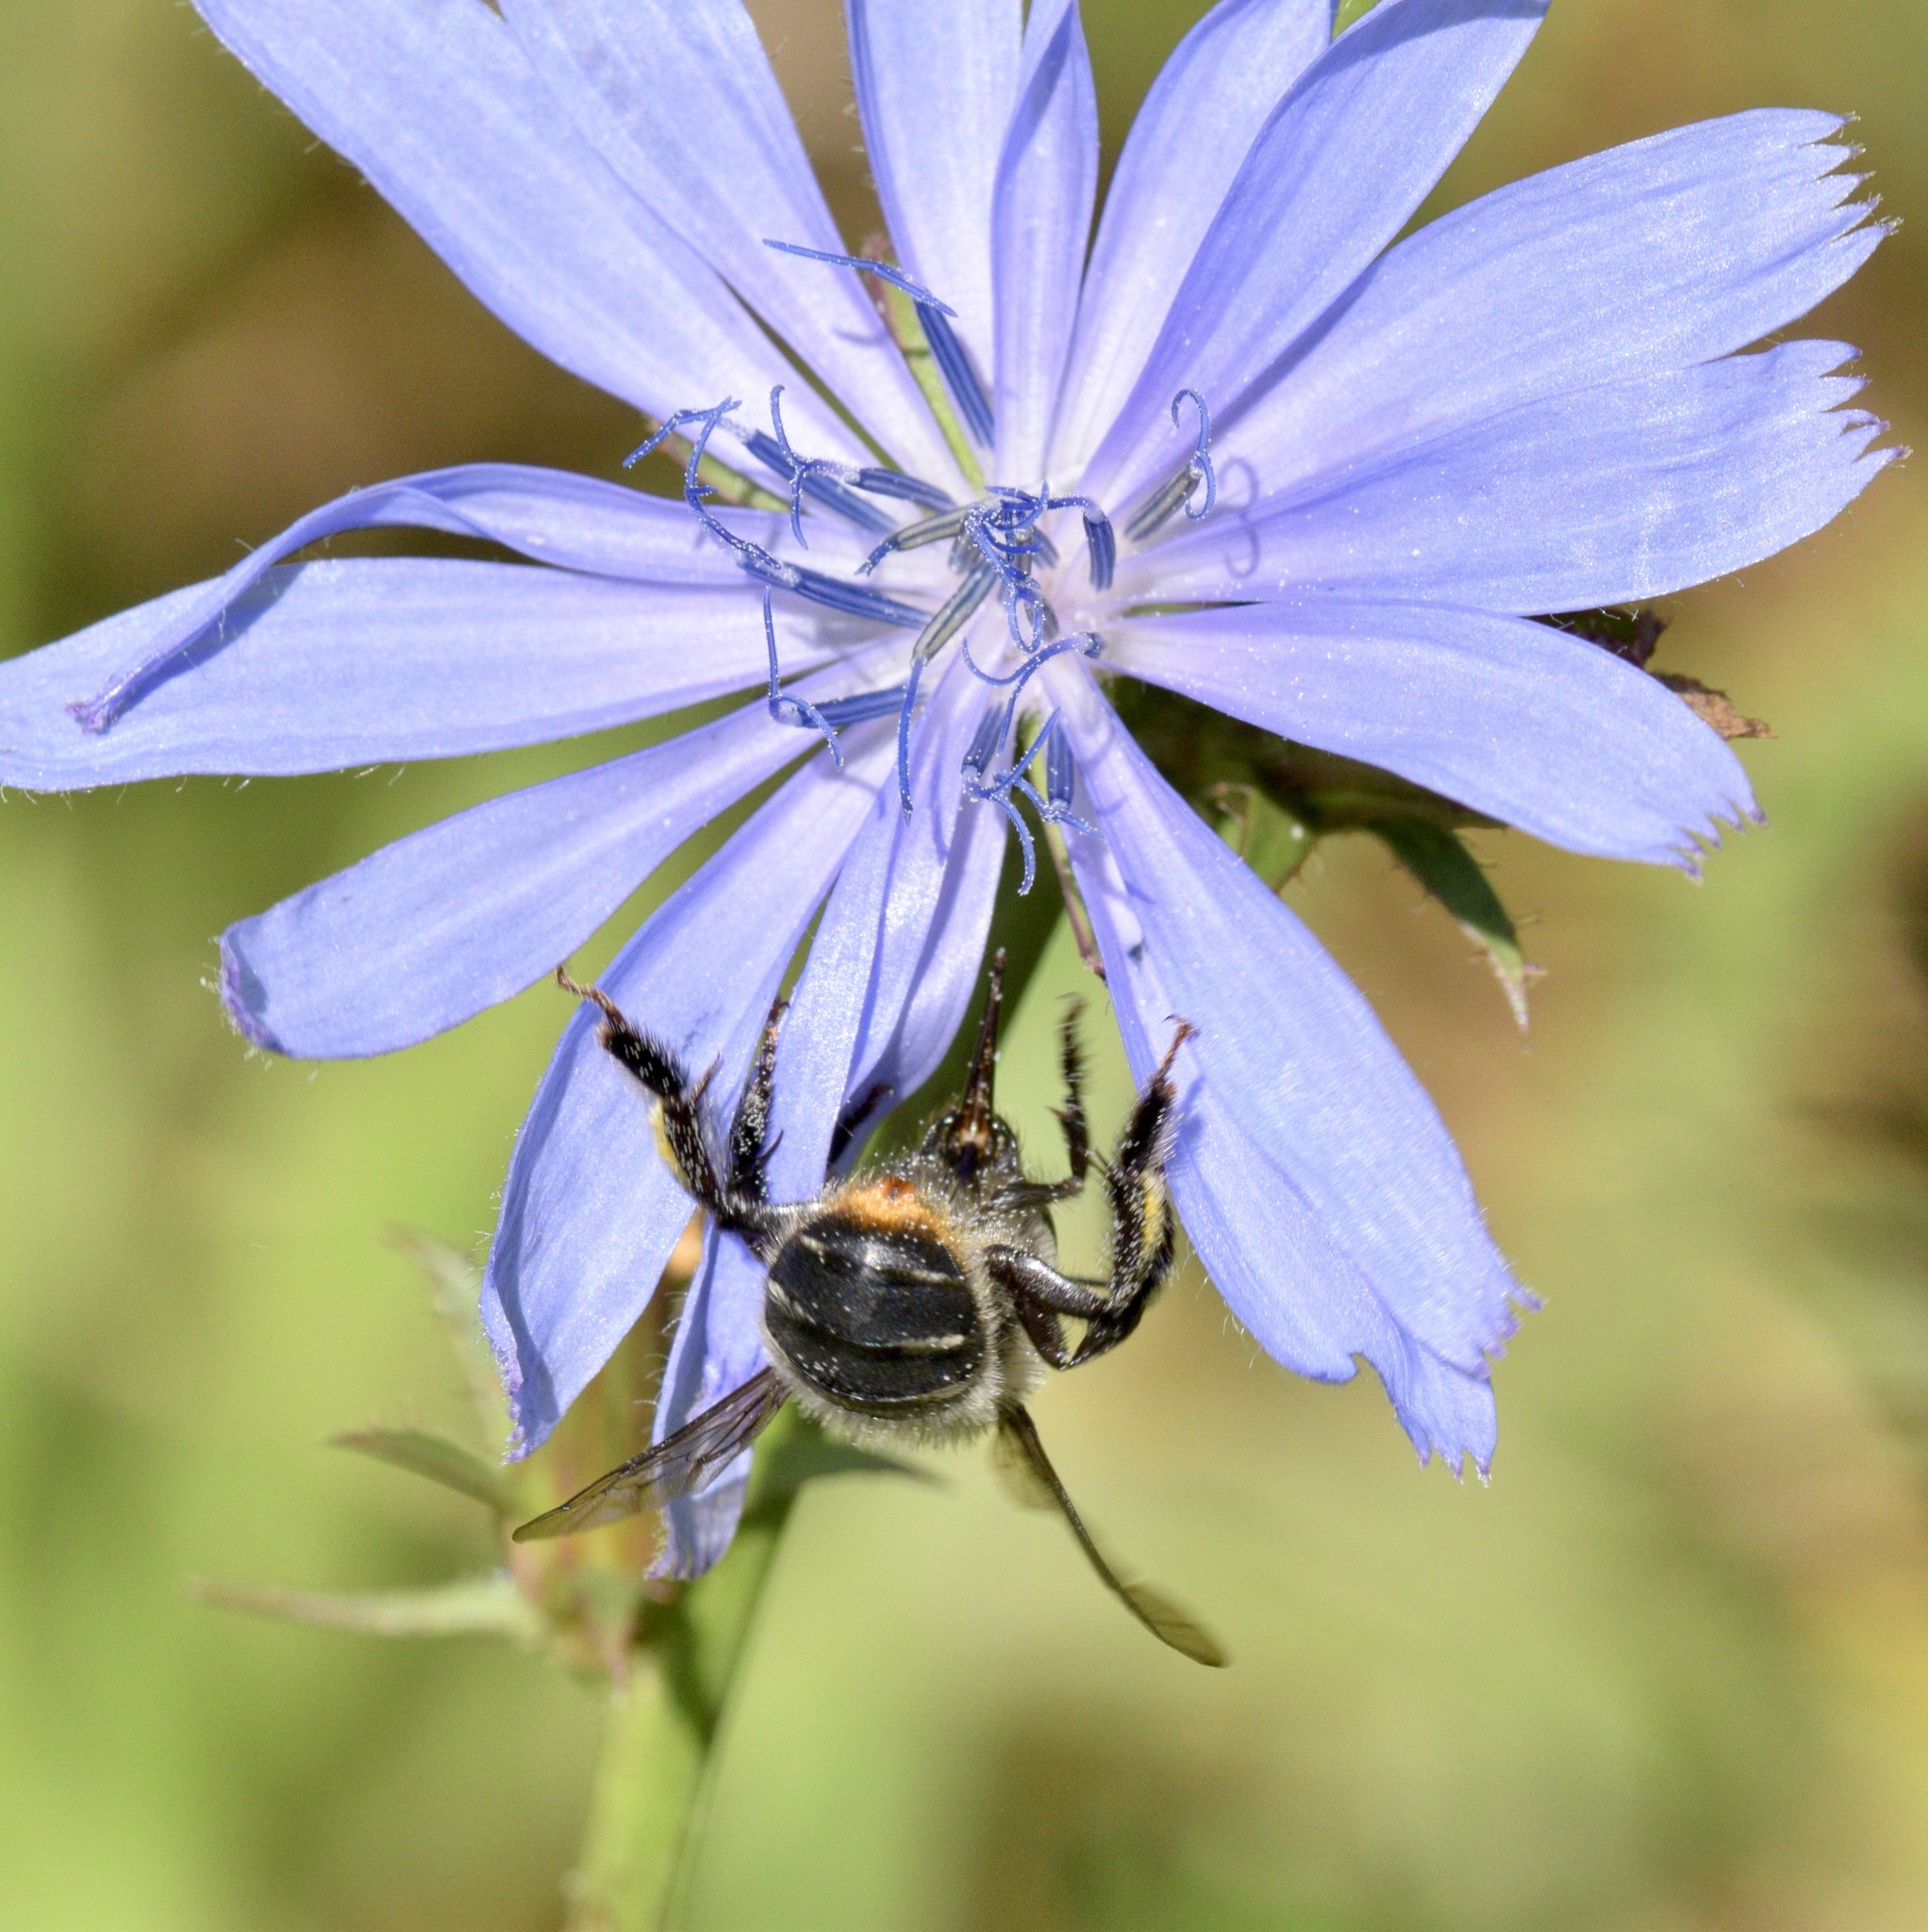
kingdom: Animalia
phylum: Arthropoda
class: Insecta
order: Hymenoptera
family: Apidae
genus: Anthophora
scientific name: Anthophora terminalis
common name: Orange-tipped wood-digger bee
